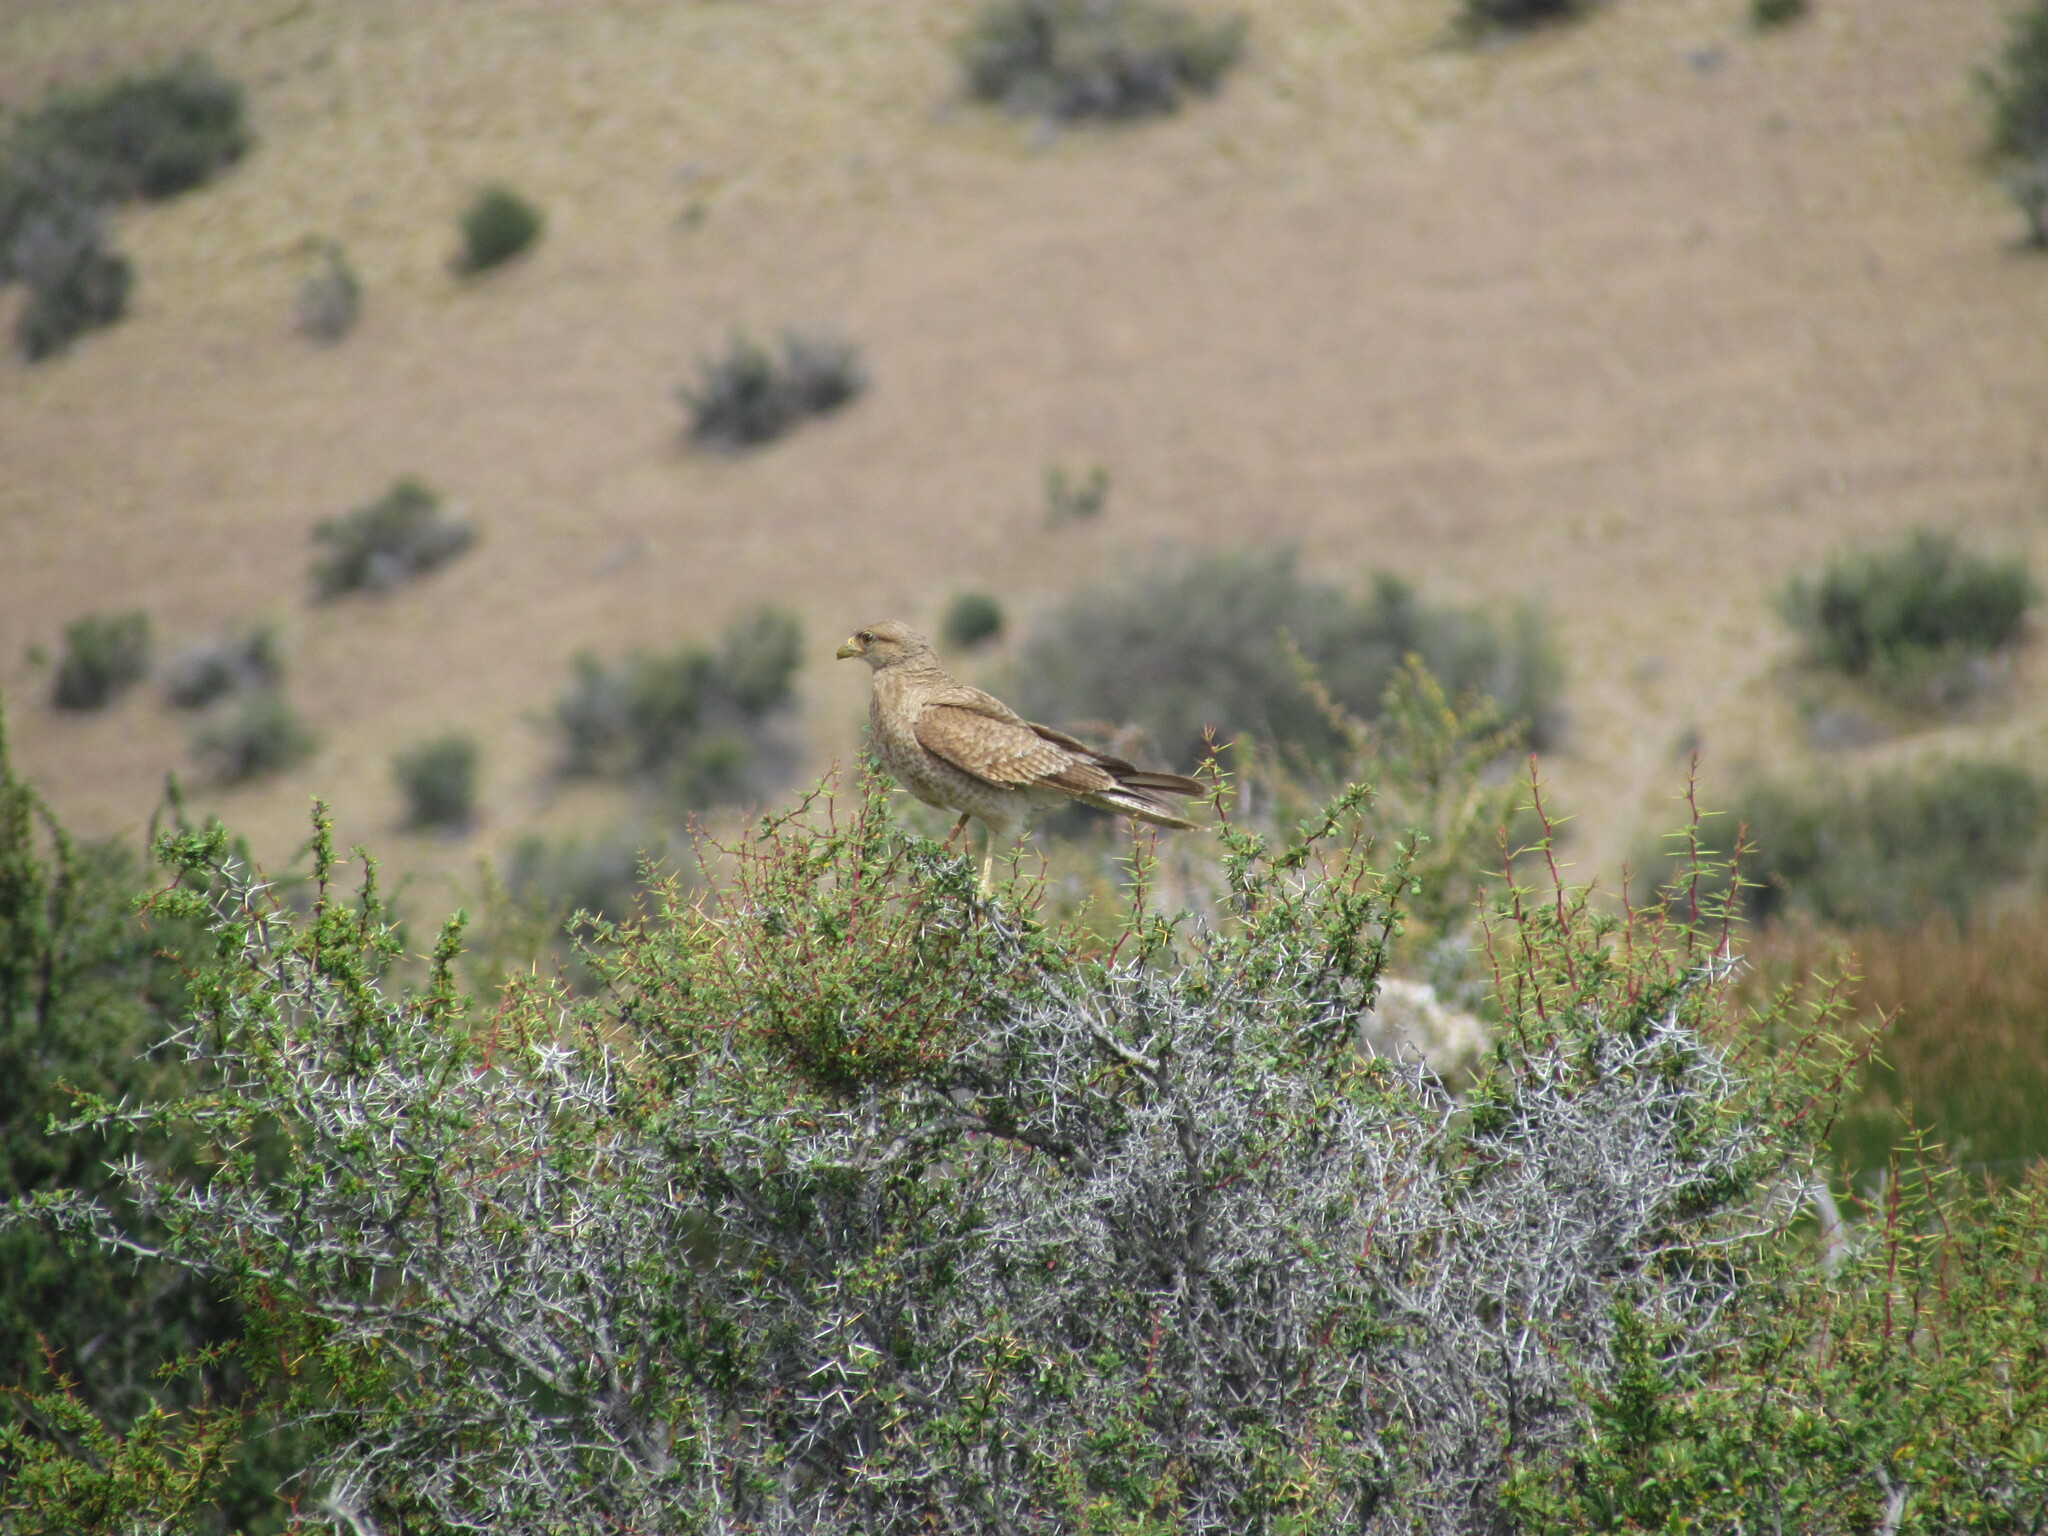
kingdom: Animalia
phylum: Chordata
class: Aves
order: Falconiformes
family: Falconidae
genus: Daptrius
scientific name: Daptrius
